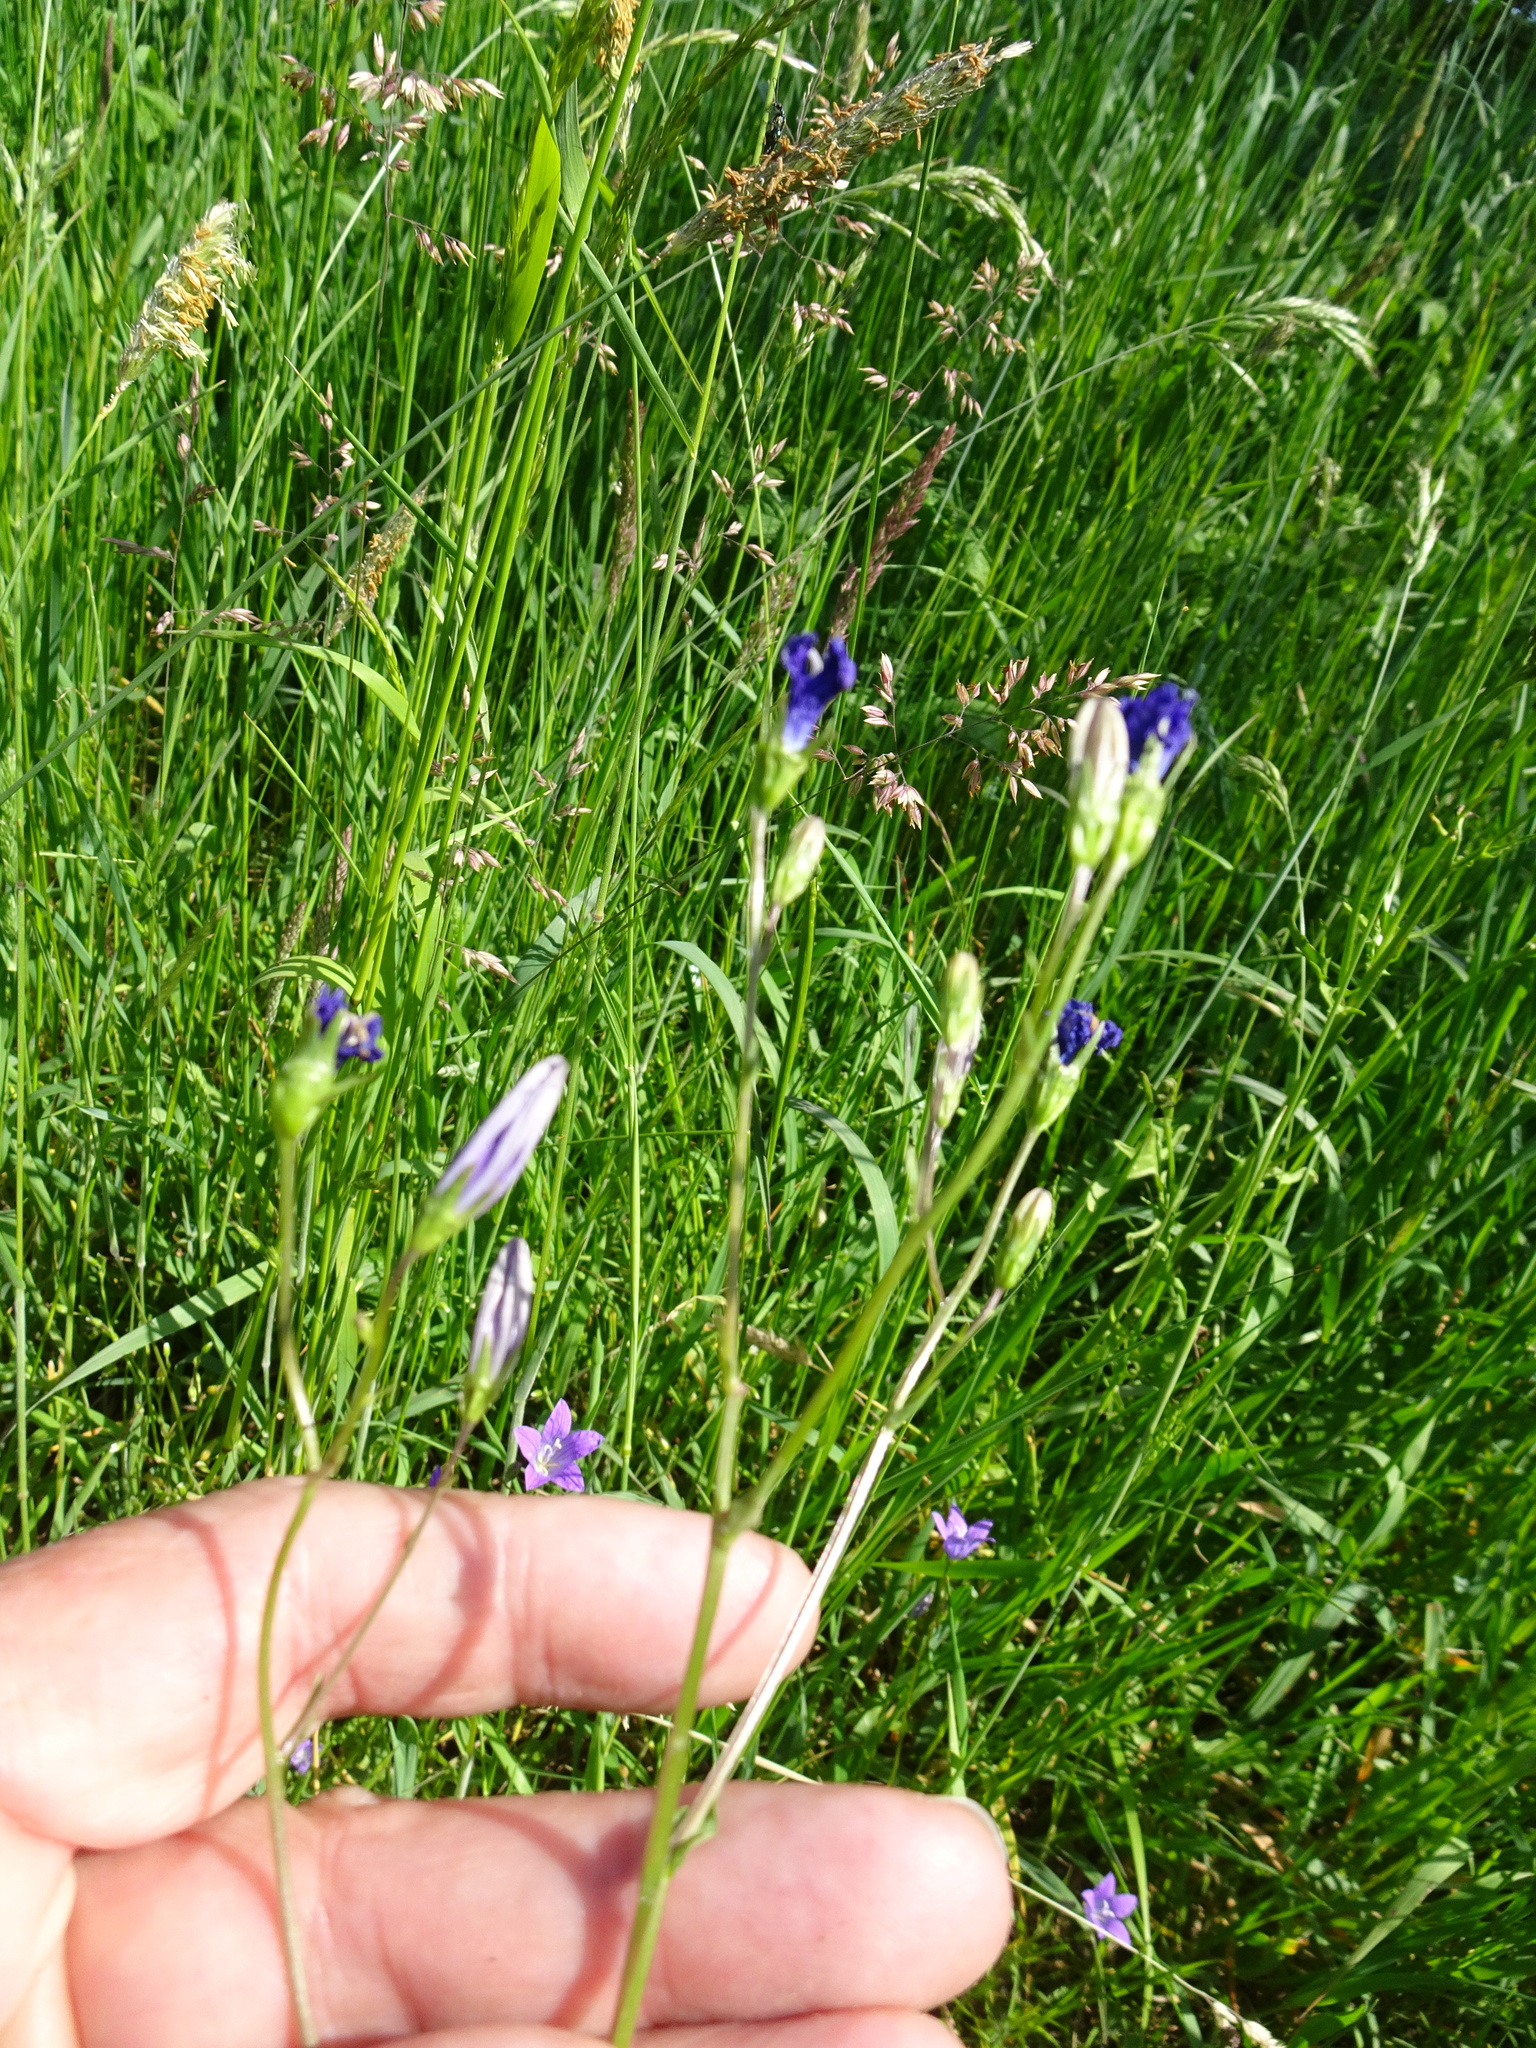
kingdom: Plantae
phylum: Tracheophyta
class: Magnoliopsida
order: Asterales
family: Campanulaceae
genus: Campanula
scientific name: Campanula patula
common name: Spreading bellflower
